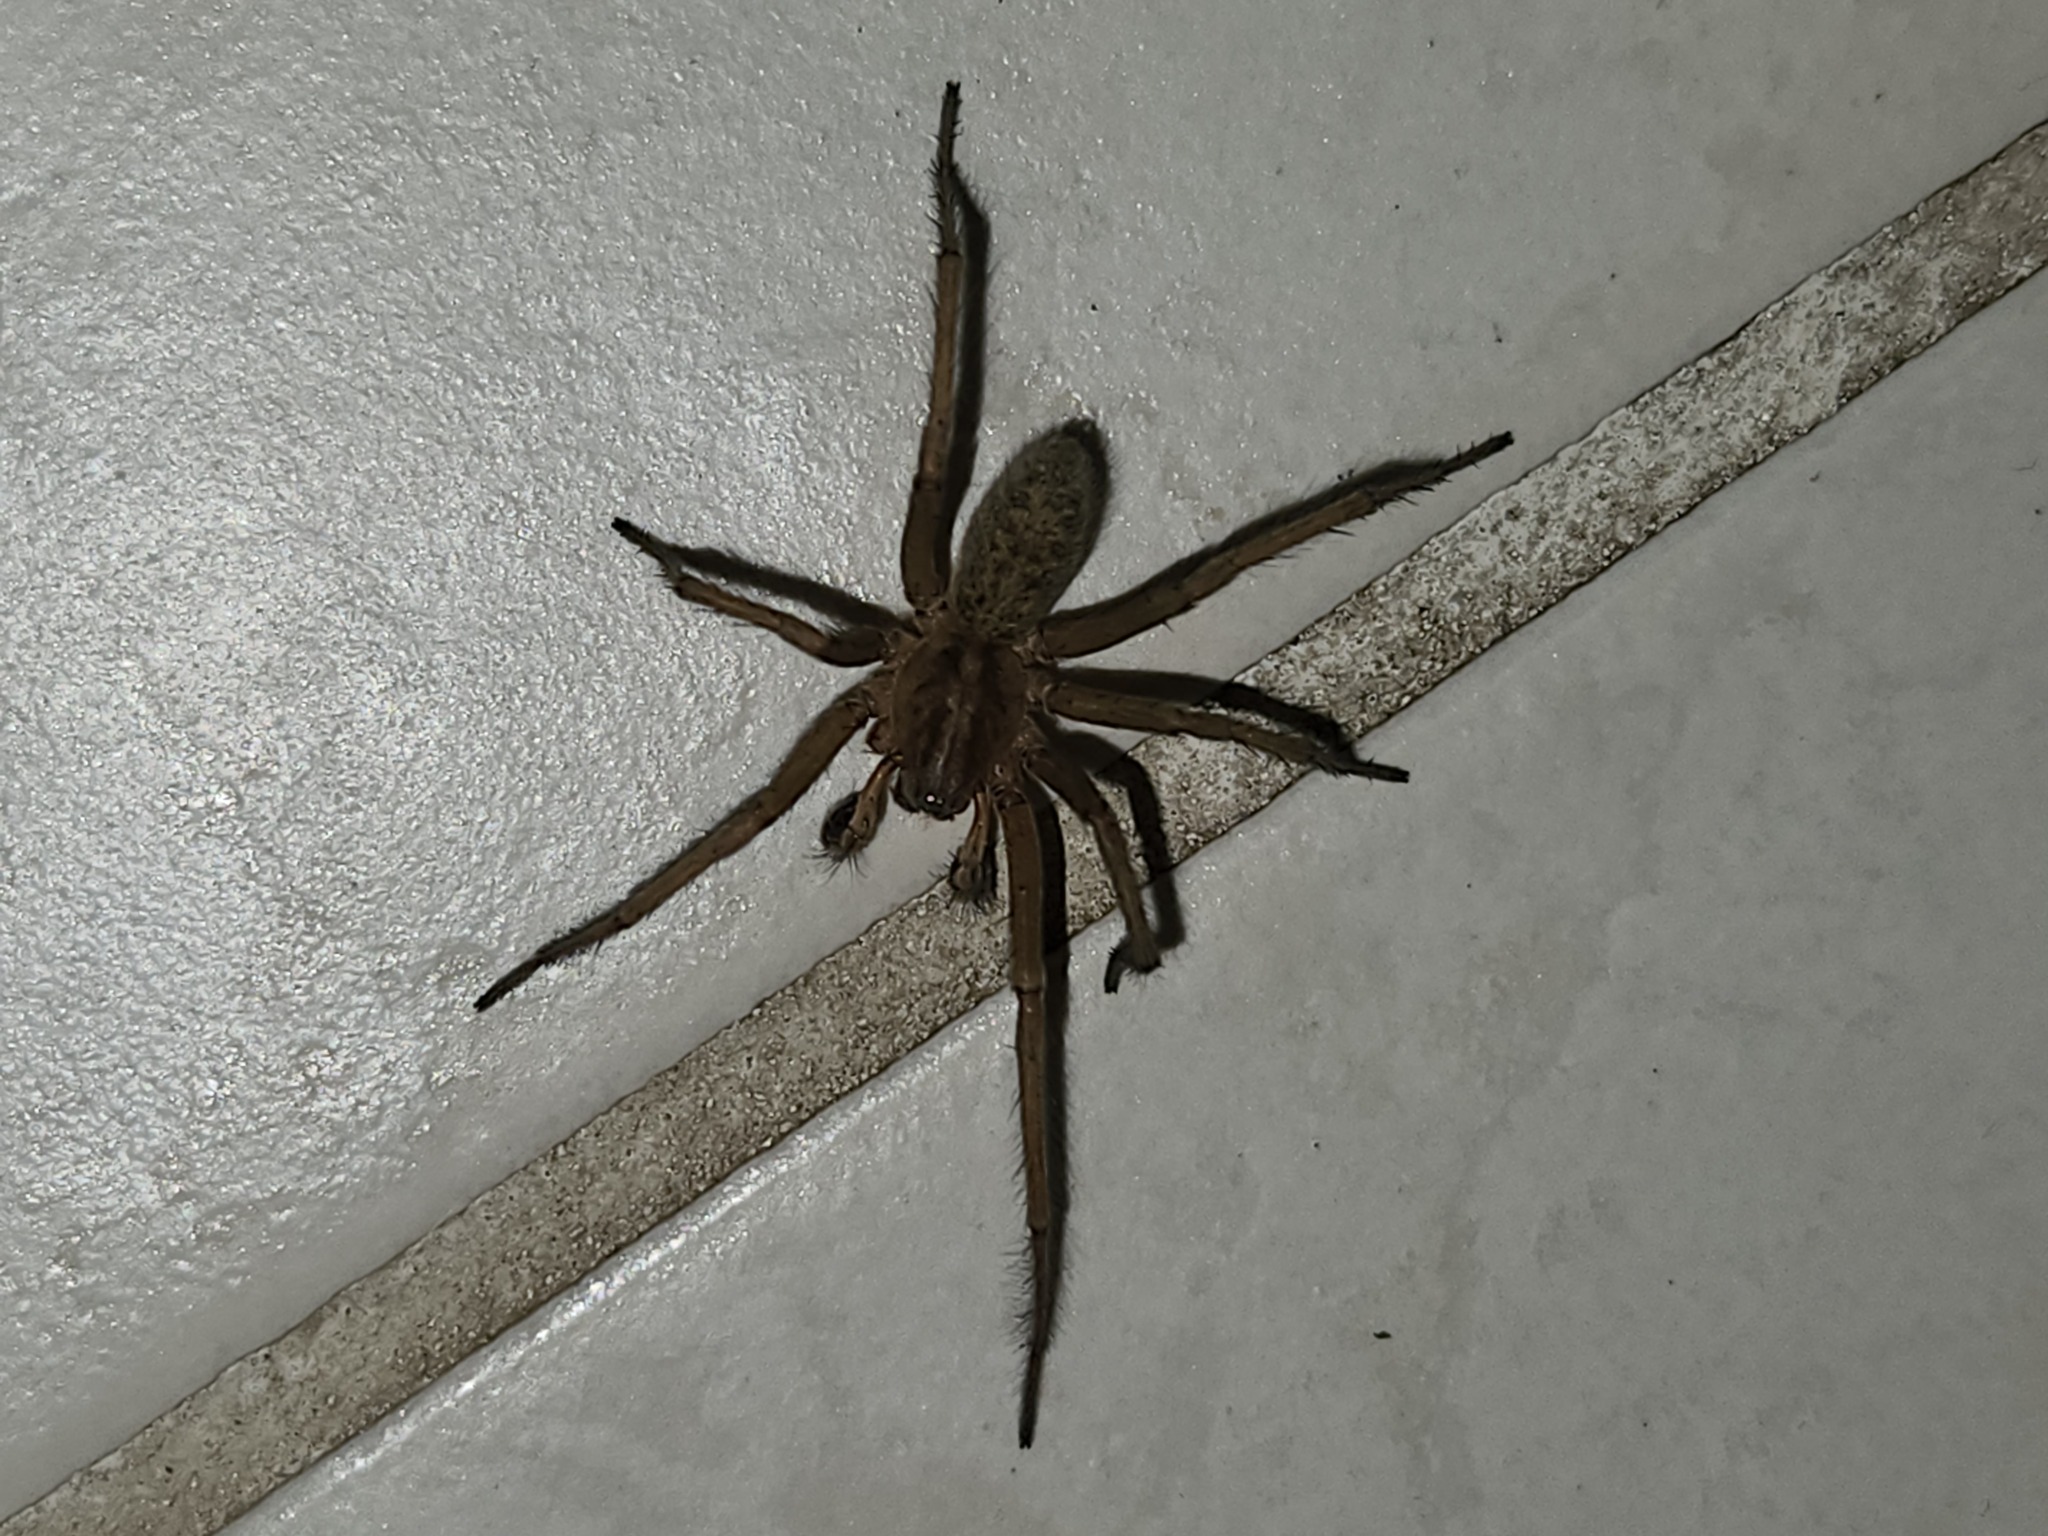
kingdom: Animalia
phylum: Arthropoda
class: Arachnida
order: Araneae
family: Agelenidae
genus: Eratigena
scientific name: Eratigena agrestis
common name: Hobo spider
